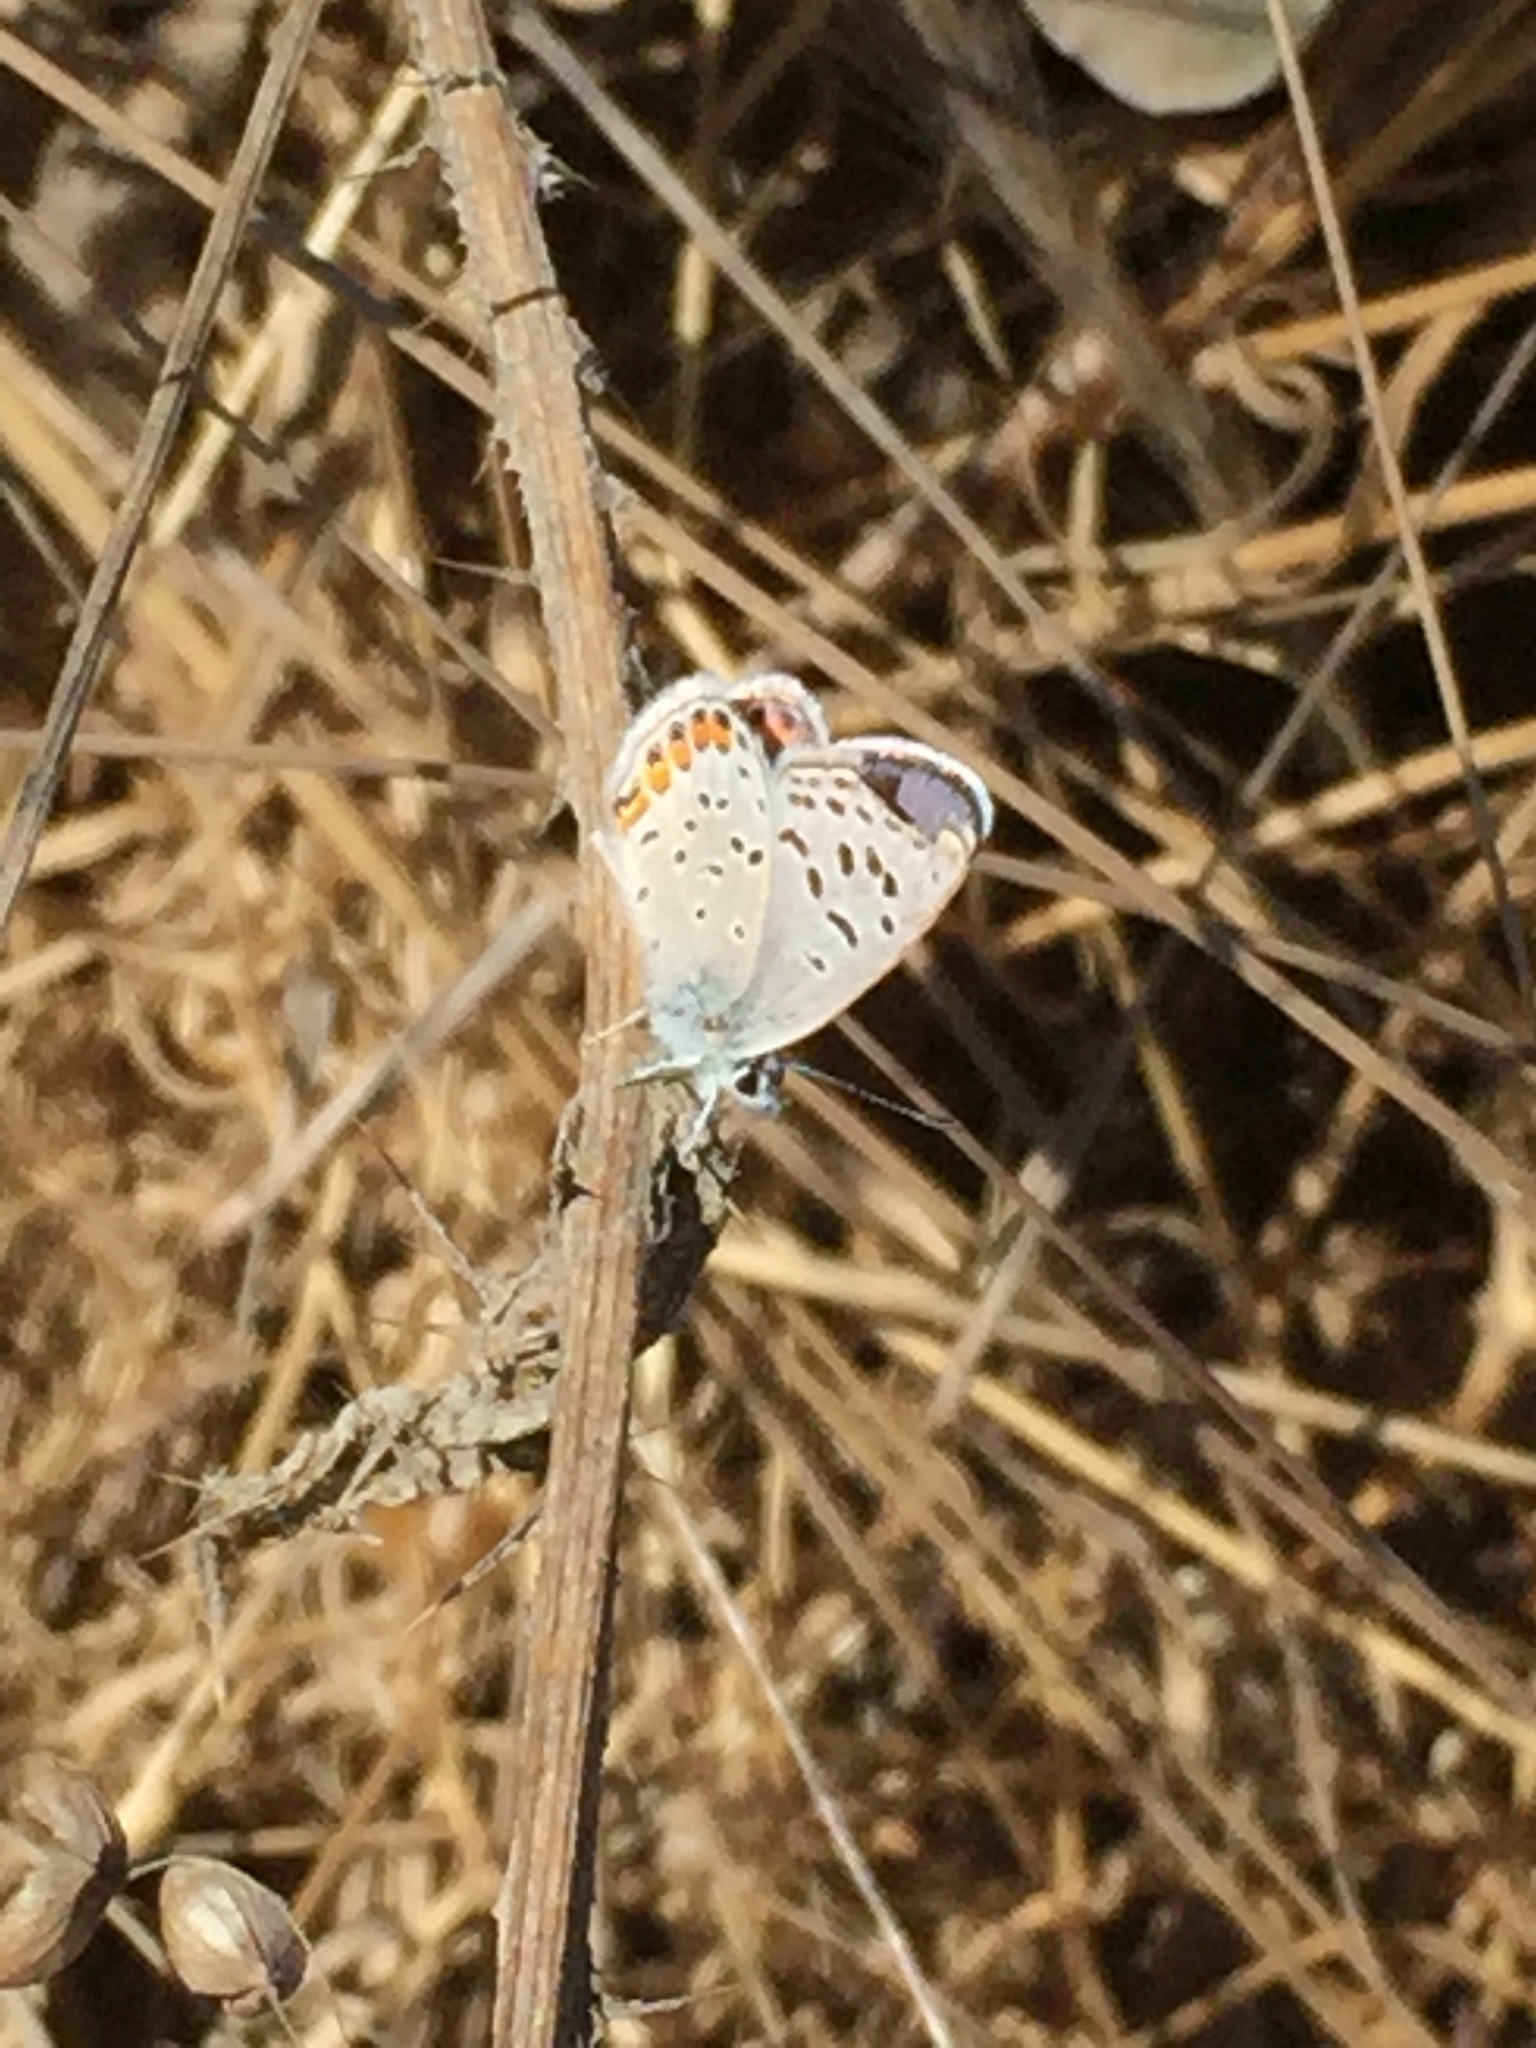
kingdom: Animalia
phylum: Arthropoda
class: Insecta
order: Lepidoptera
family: Lycaenidae
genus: Icaricia
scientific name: Icaricia acmon
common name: Acmon blue
